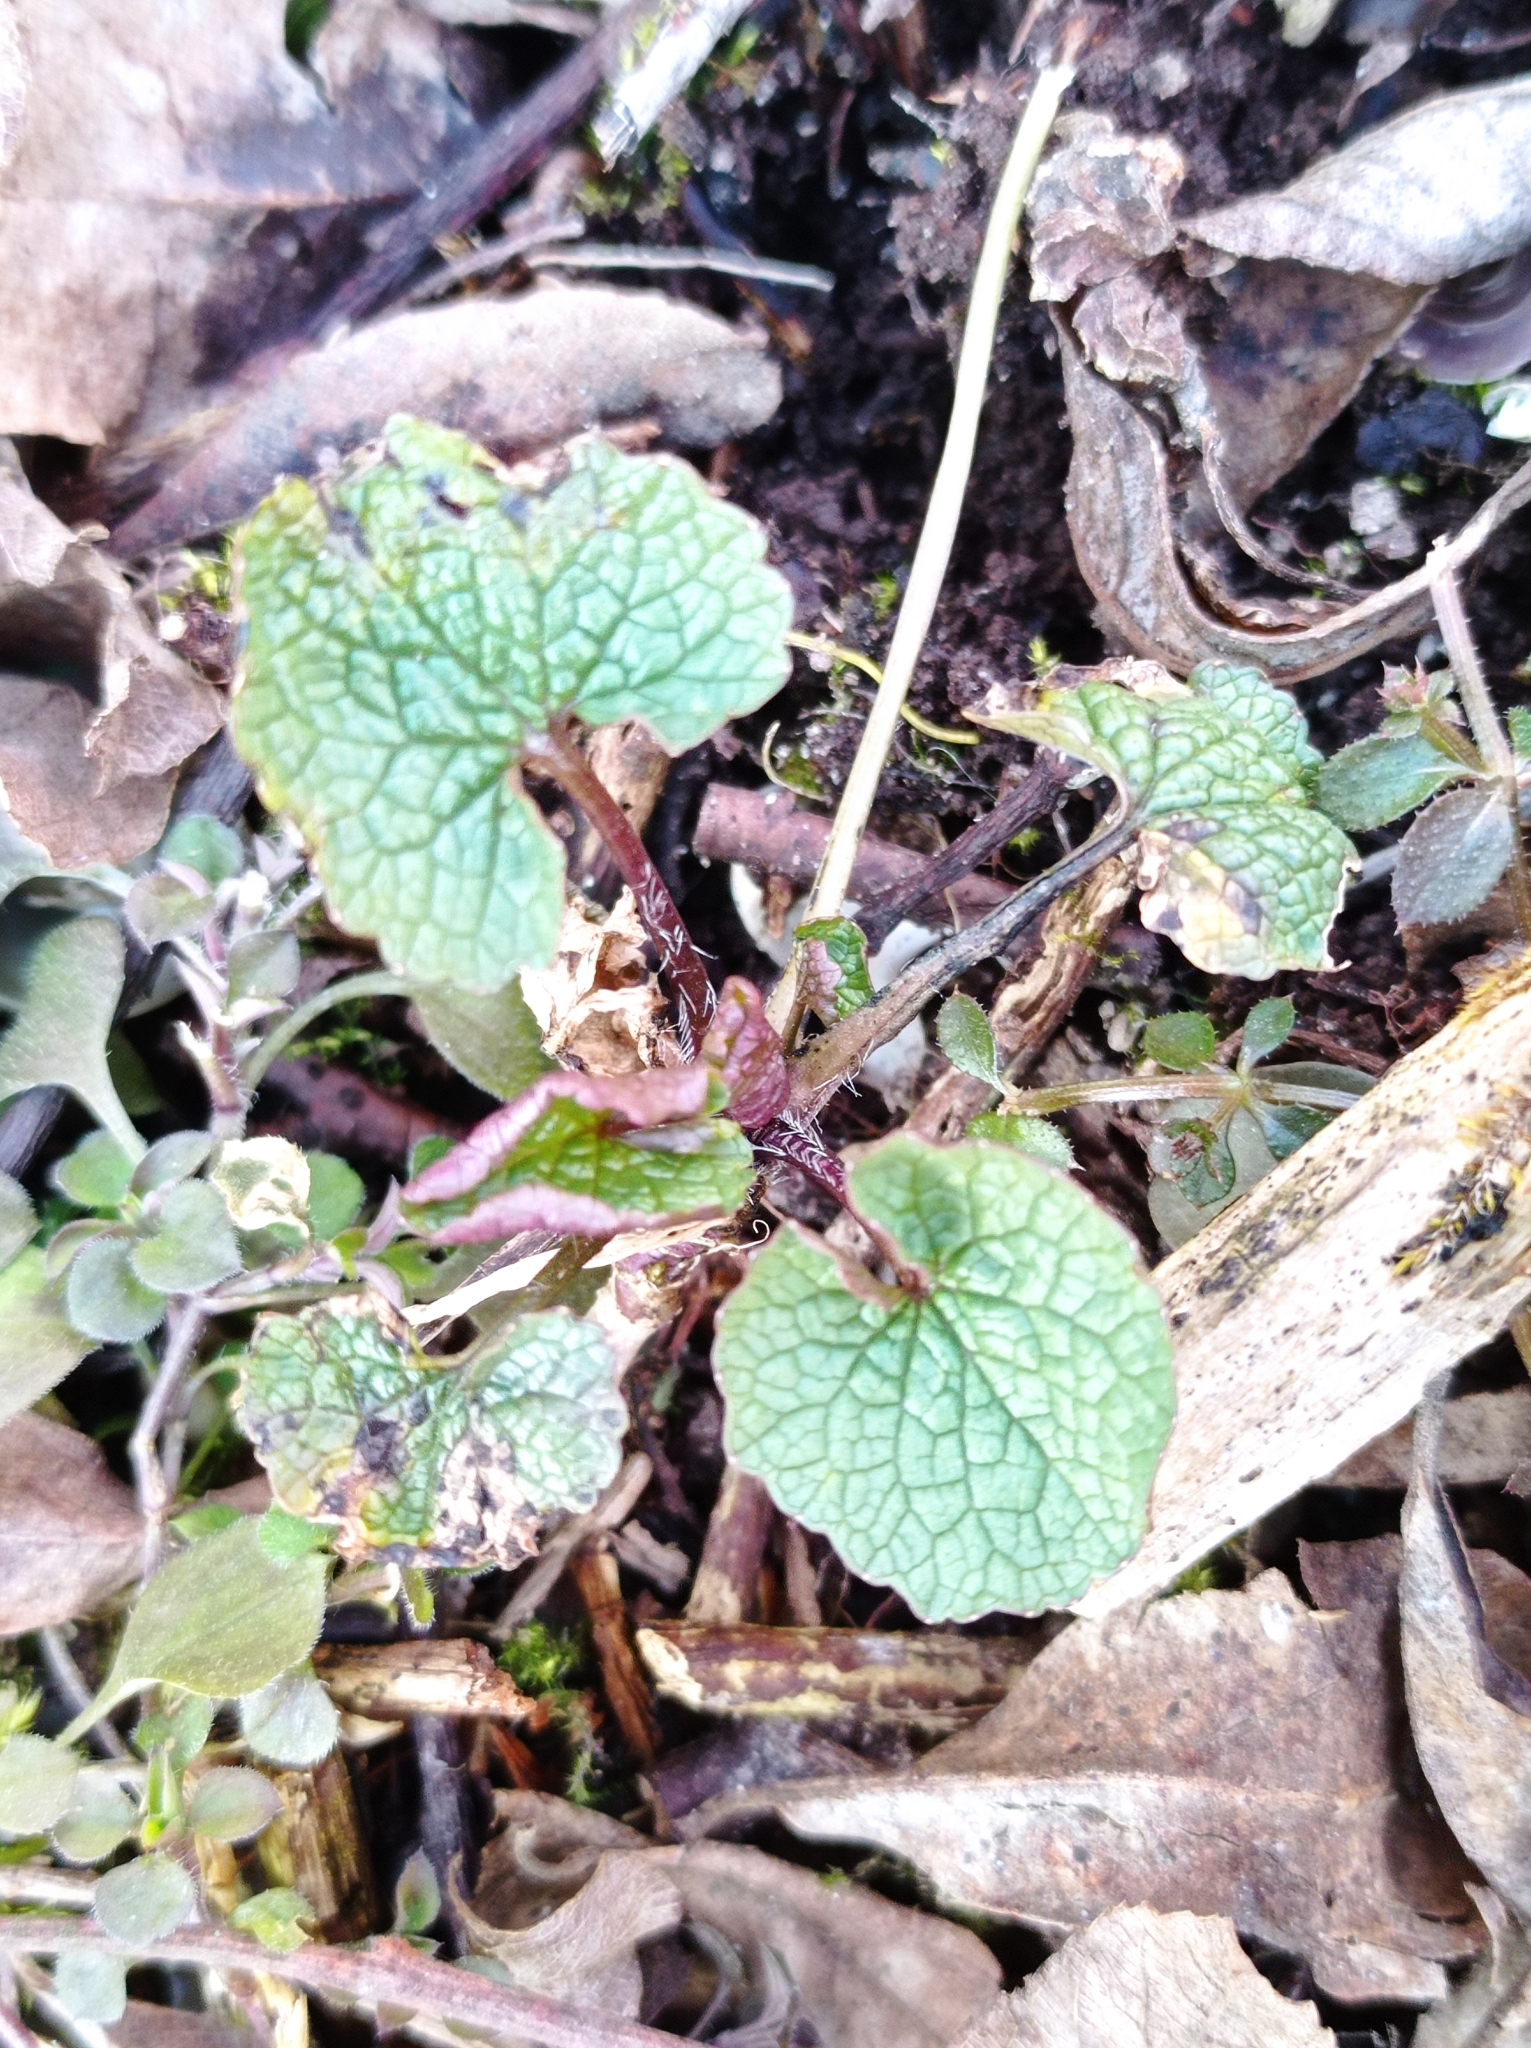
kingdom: Plantae
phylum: Tracheophyta
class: Magnoliopsida
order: Brassicales
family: Brassicaceae
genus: Alliaria
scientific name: Alliaria petiolata
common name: Garlic mustard
